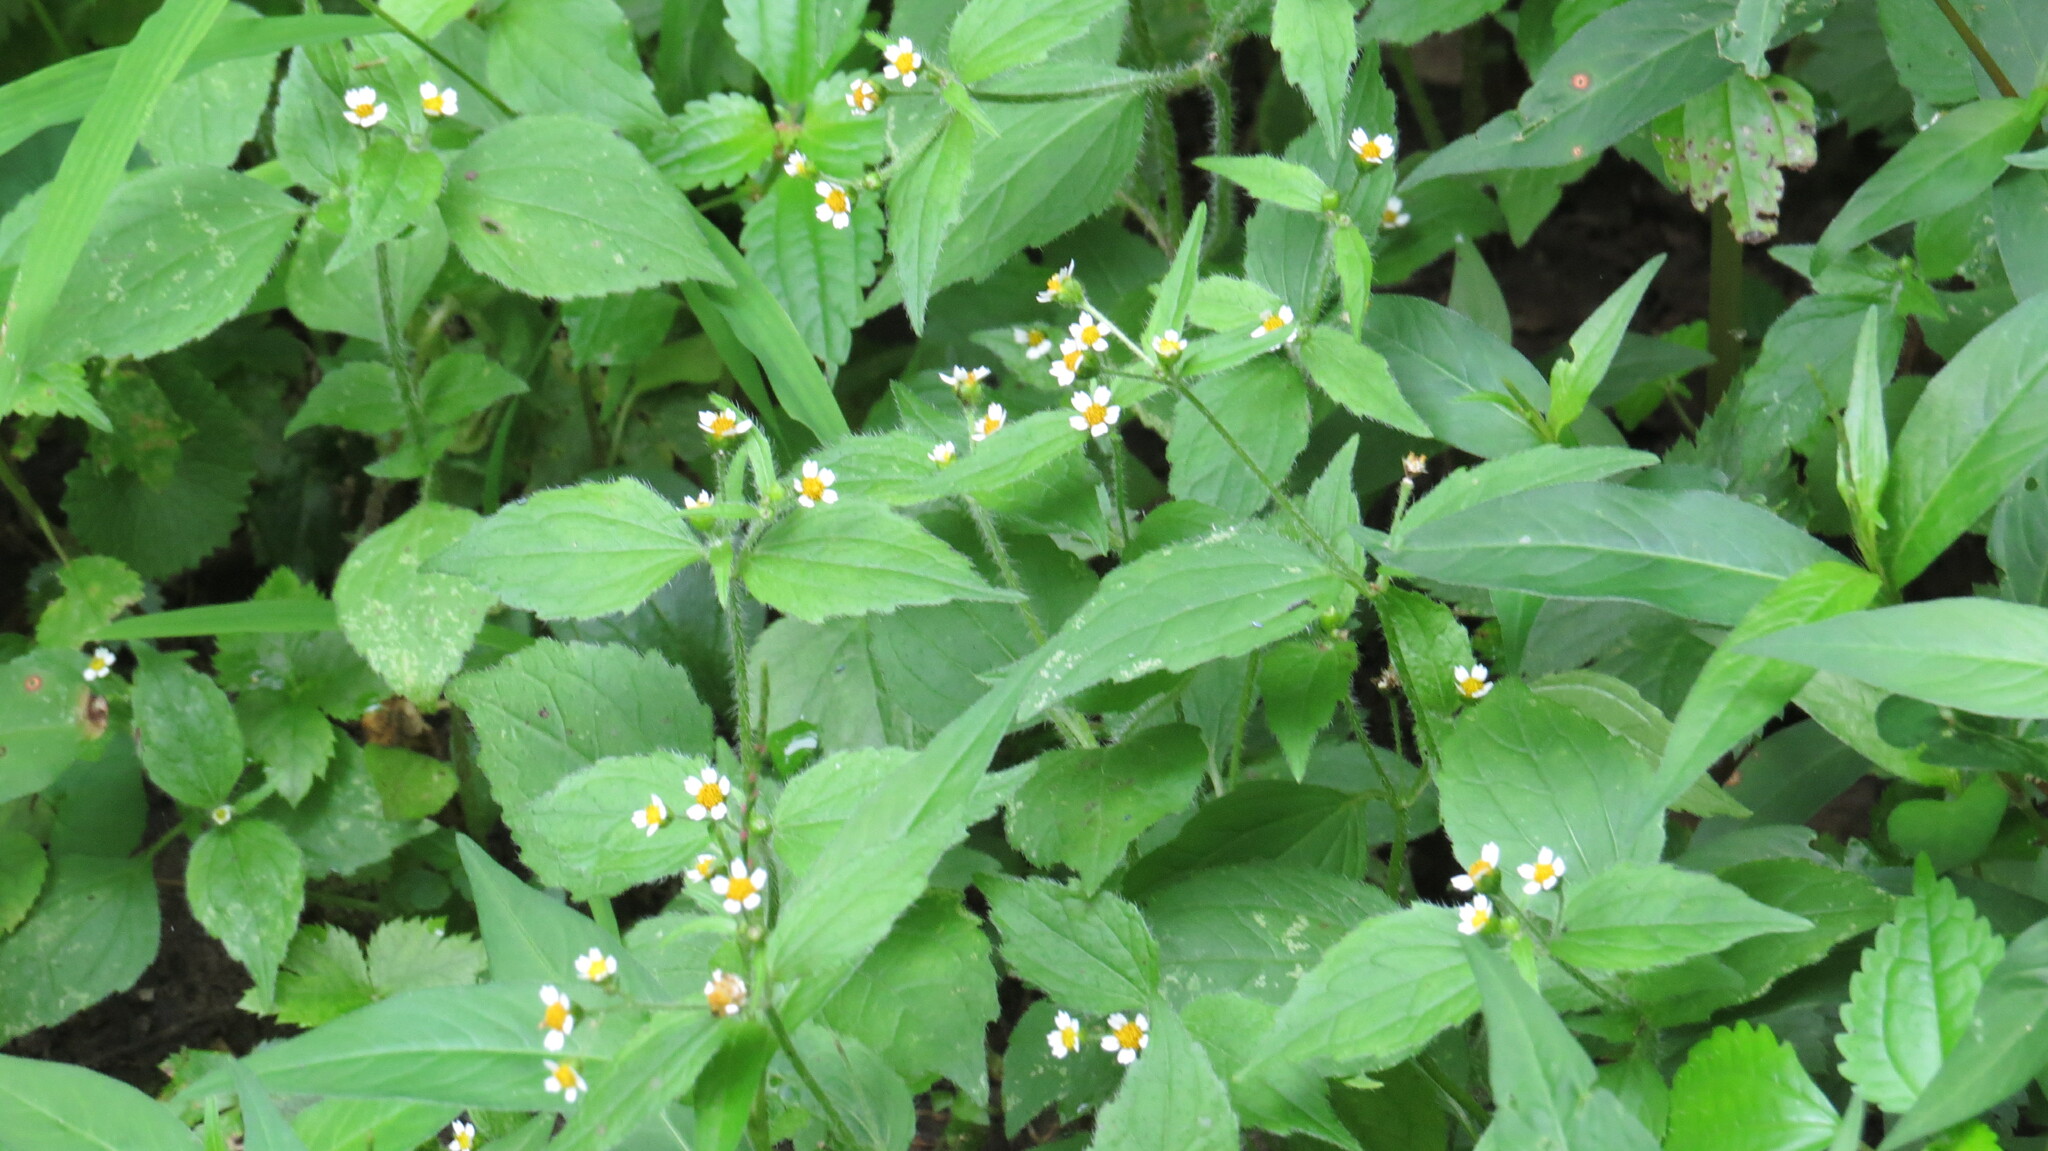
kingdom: Plantae
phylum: Tracheophyta
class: Magnoliopsida
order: Asterales
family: Asteraceae
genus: Galinsoga
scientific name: Galinsoga quadriradiata
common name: Shaggy soldier
